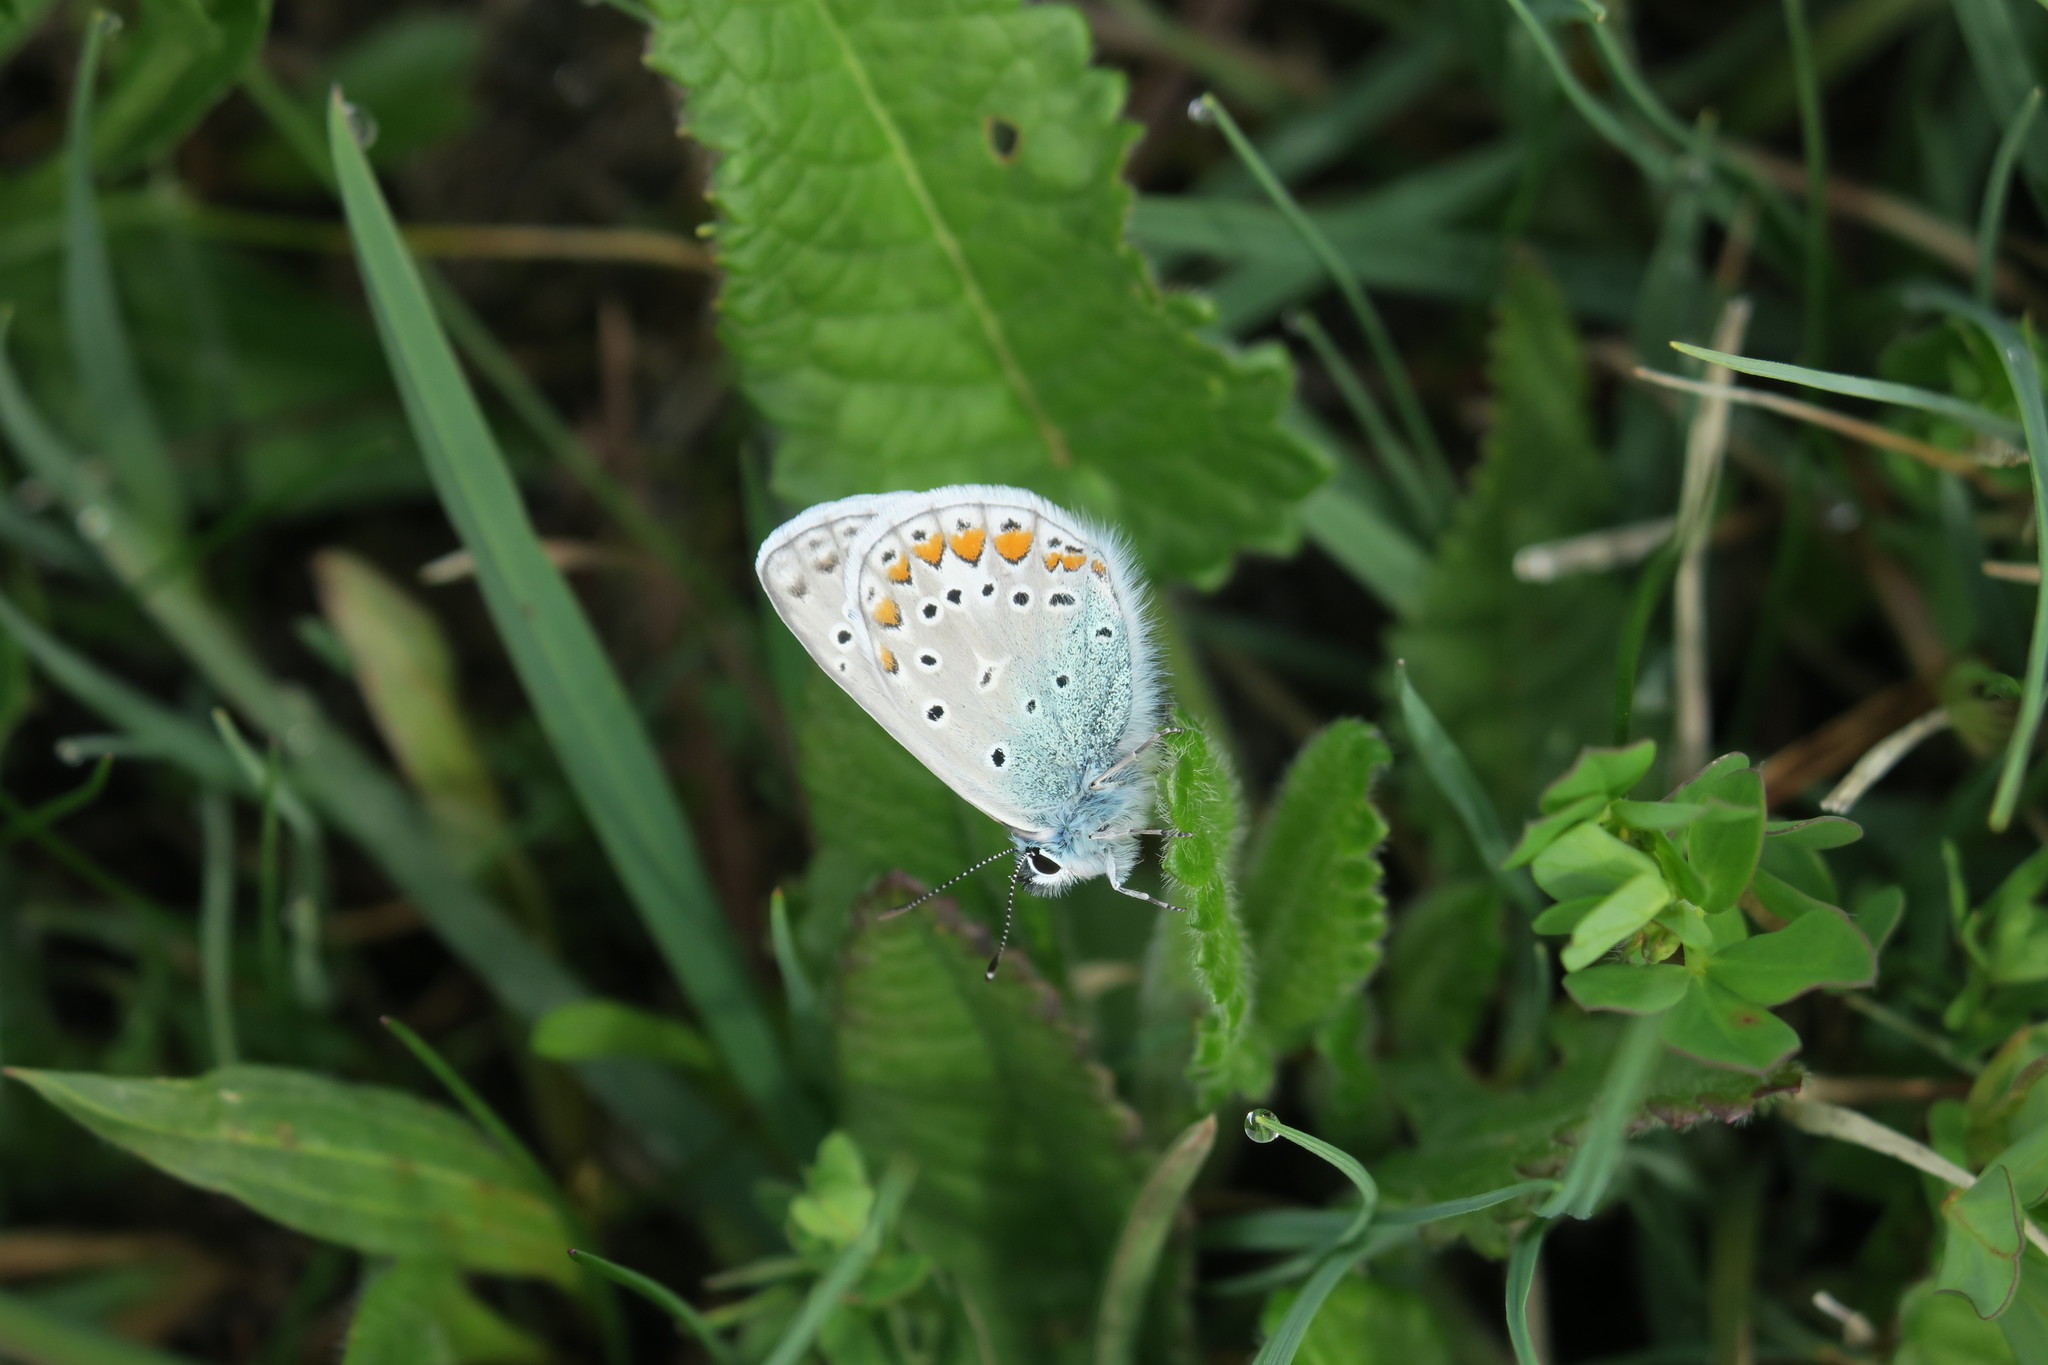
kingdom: Animalia
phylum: Arthropoda
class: Insecta
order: Lepidoptera
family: Lycaenidae
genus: Polyommatus
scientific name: Polyommatus icarus
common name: Common blue
